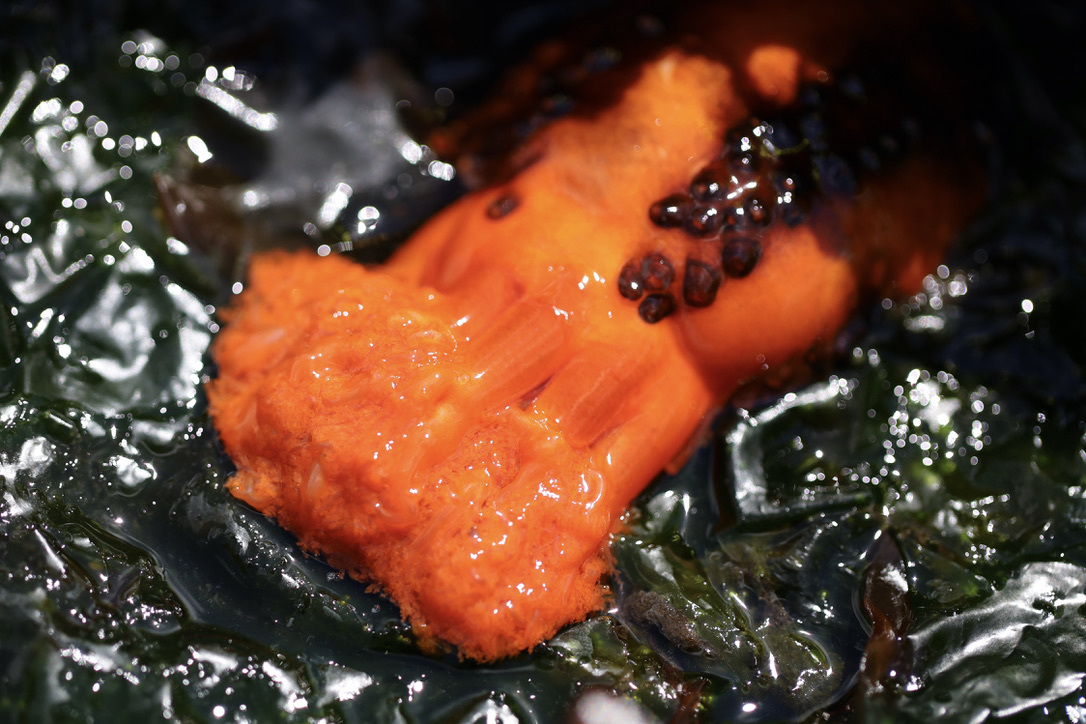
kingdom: Animalia
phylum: Echinodermata
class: Holothuroidea
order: Dendrochirotida
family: Cucumariidae
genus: Cucumaria
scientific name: Cucumaria miniata
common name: Orange sea cucumber
